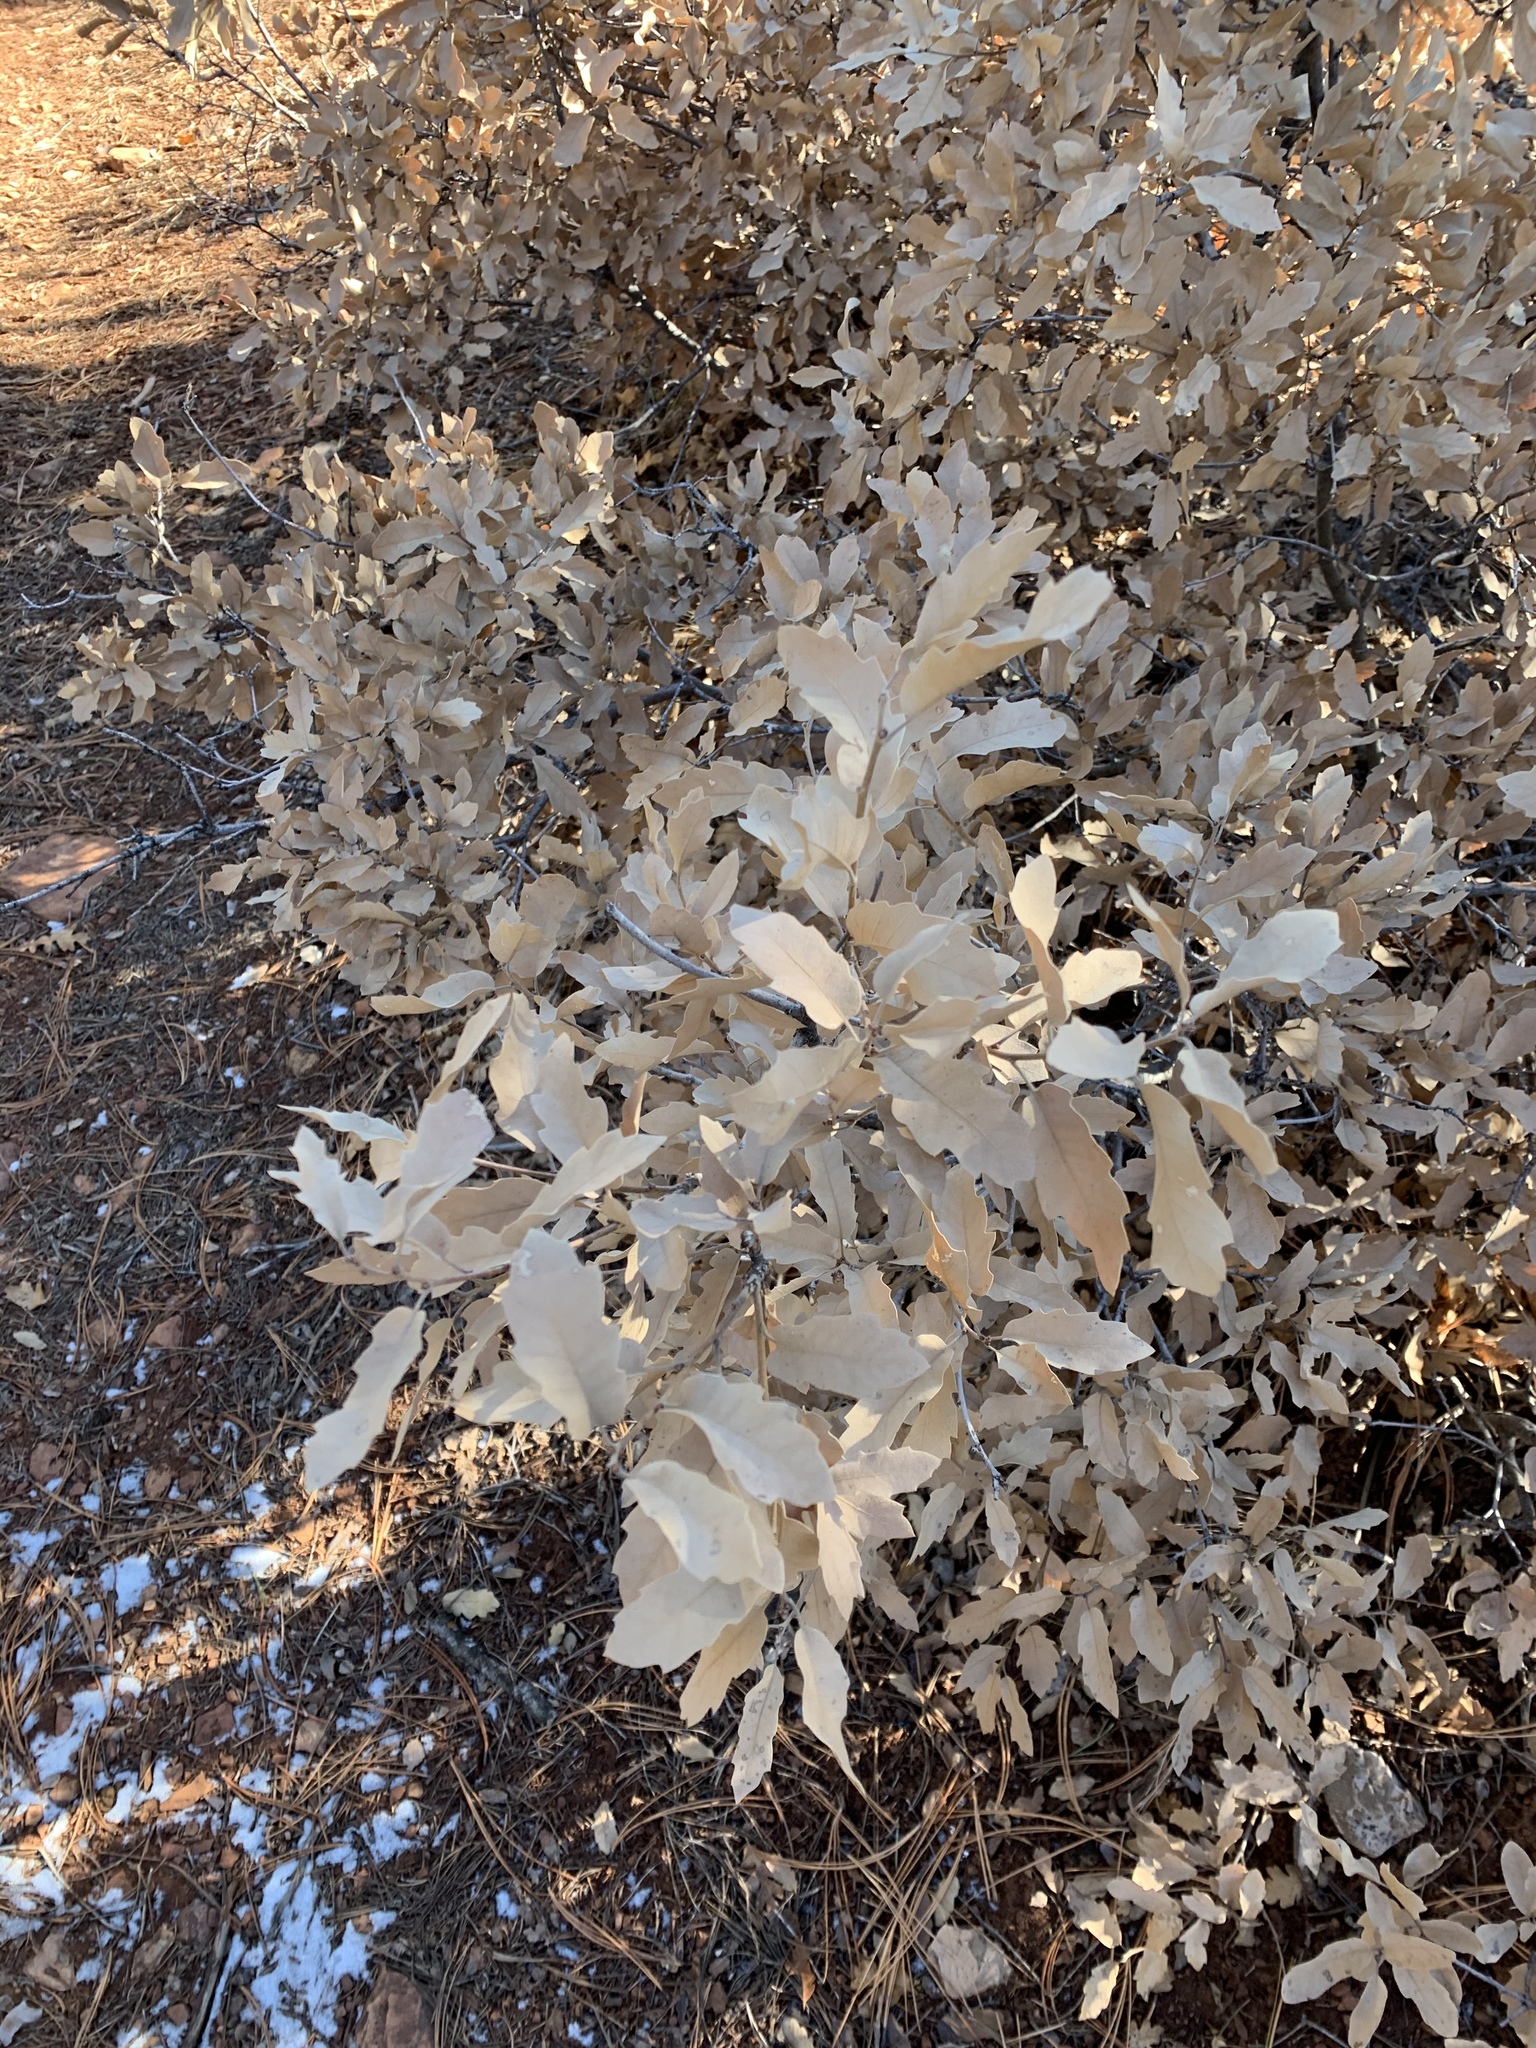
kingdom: Plantae
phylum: Tracheophyta
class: Magnoliopsida
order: Fagales
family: Fagaceae
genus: Quercus
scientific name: Quercus undulata
